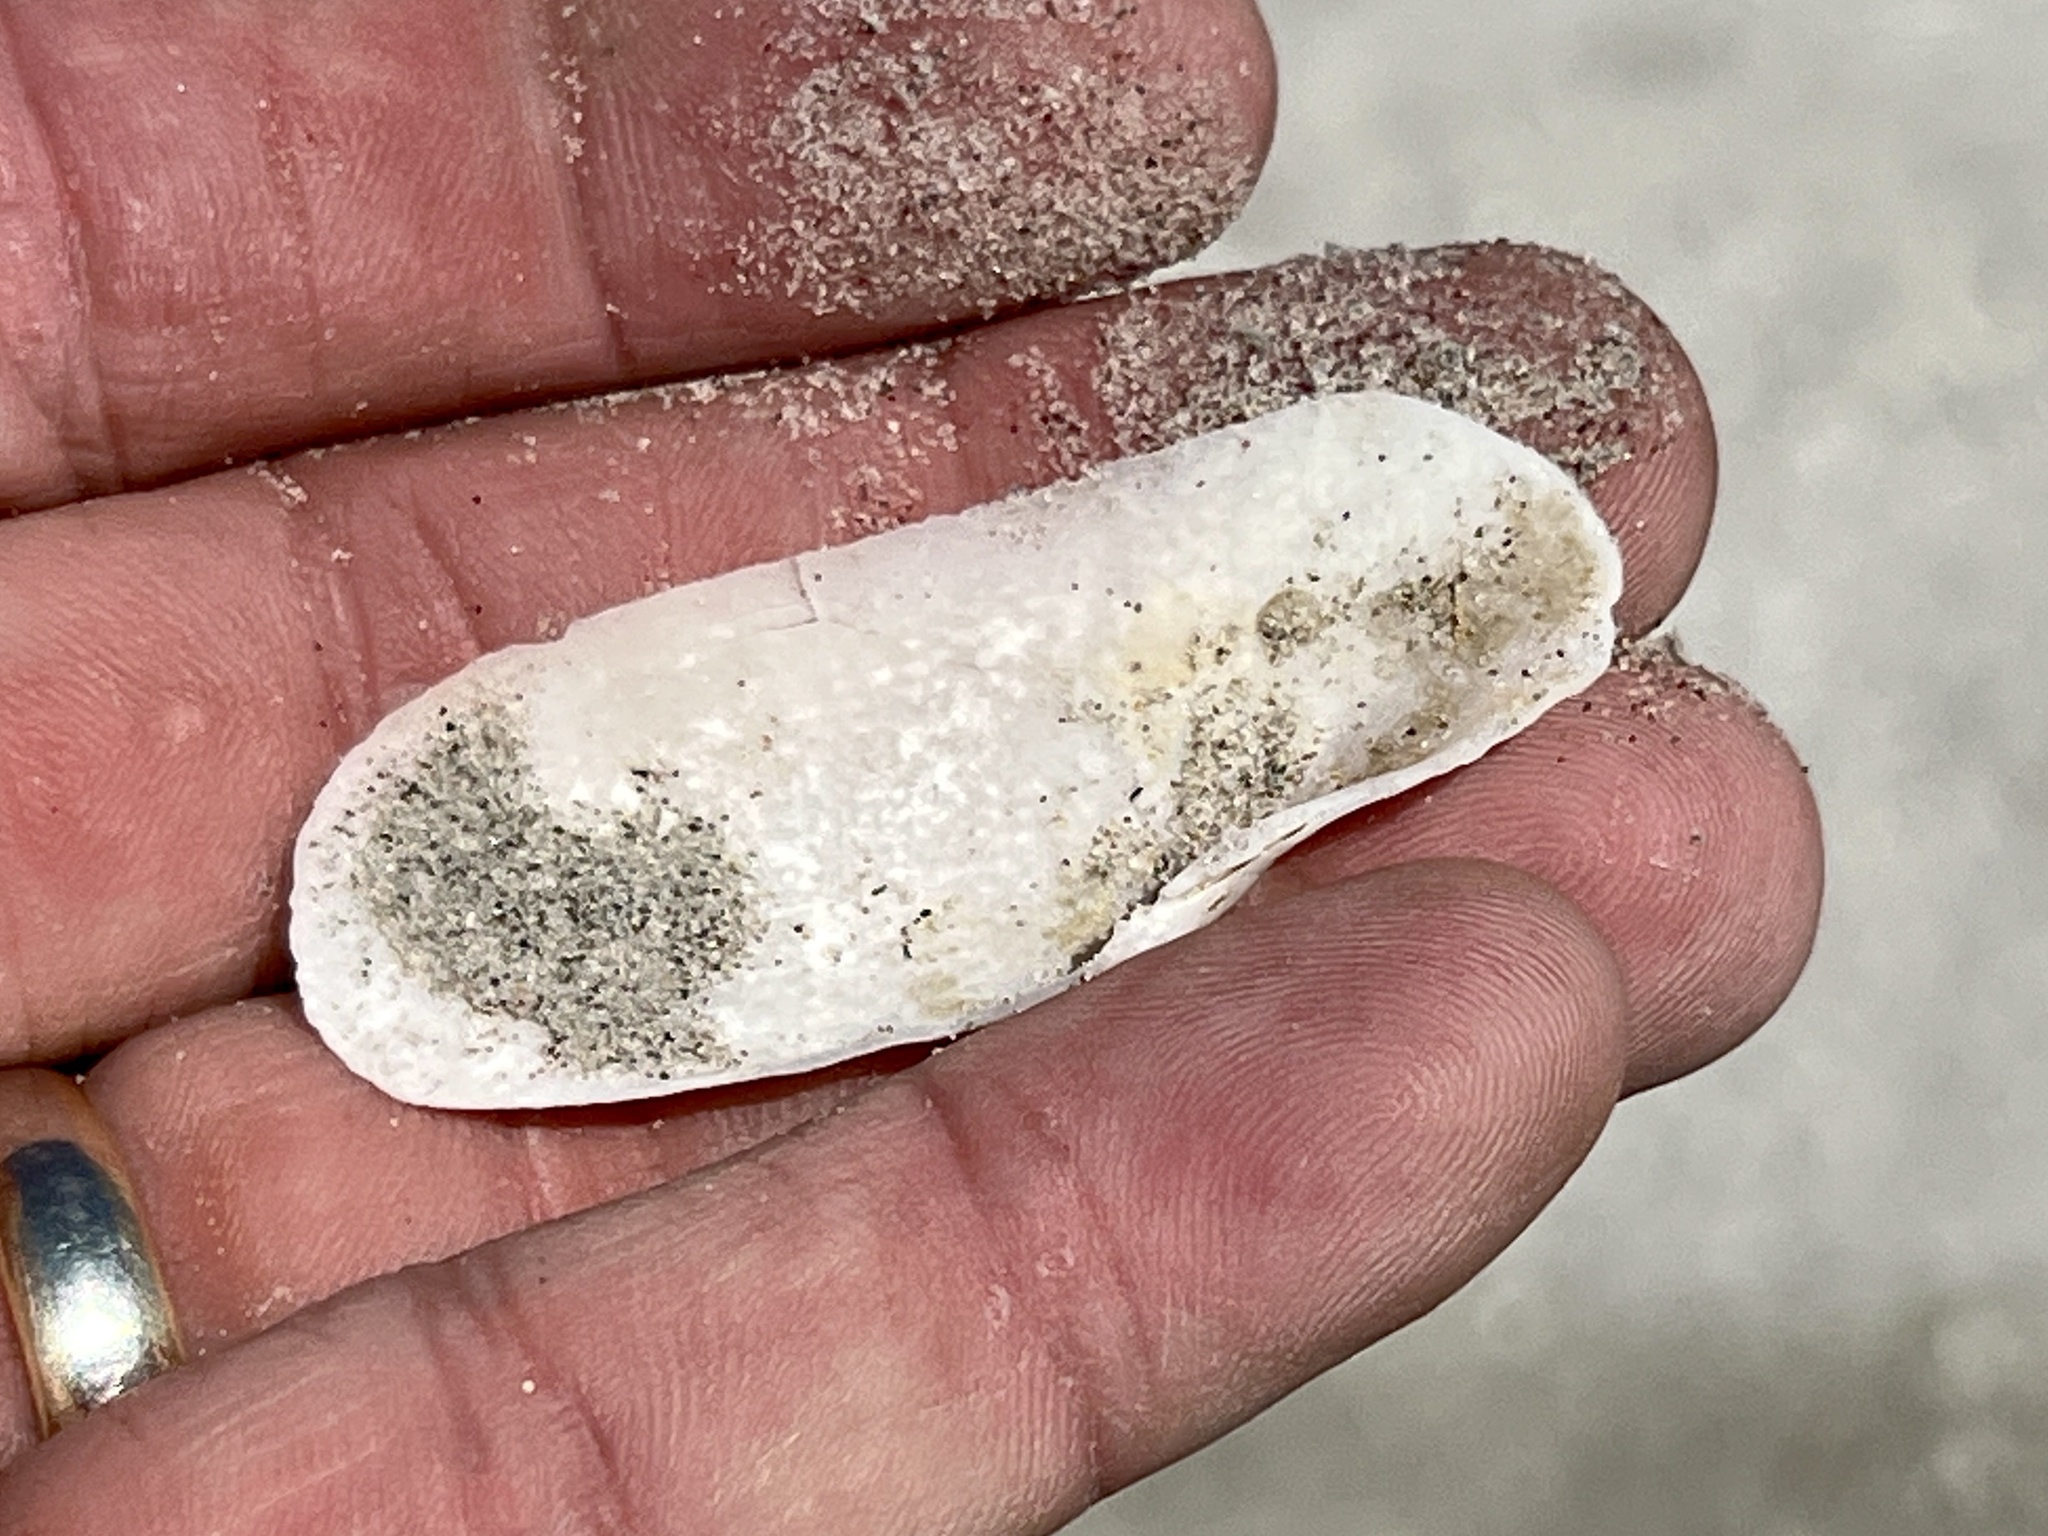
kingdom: Animalia
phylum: Mollusca
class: Bivalvia
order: Cardiida
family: Solecurtidae
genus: Tagelus
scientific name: Tagelus plebeius
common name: Stout tagelus
